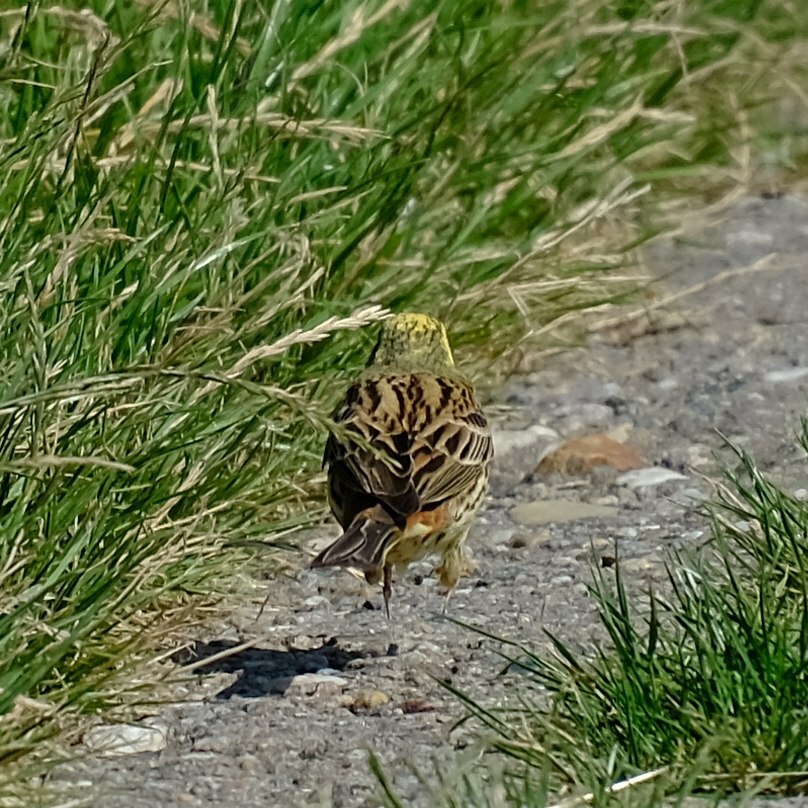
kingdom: Animalia
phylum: Chordata
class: Aves
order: Passeriformes
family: Emberizidae
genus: Emberiza
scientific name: Emberiza citrinella
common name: Yellowhammer
